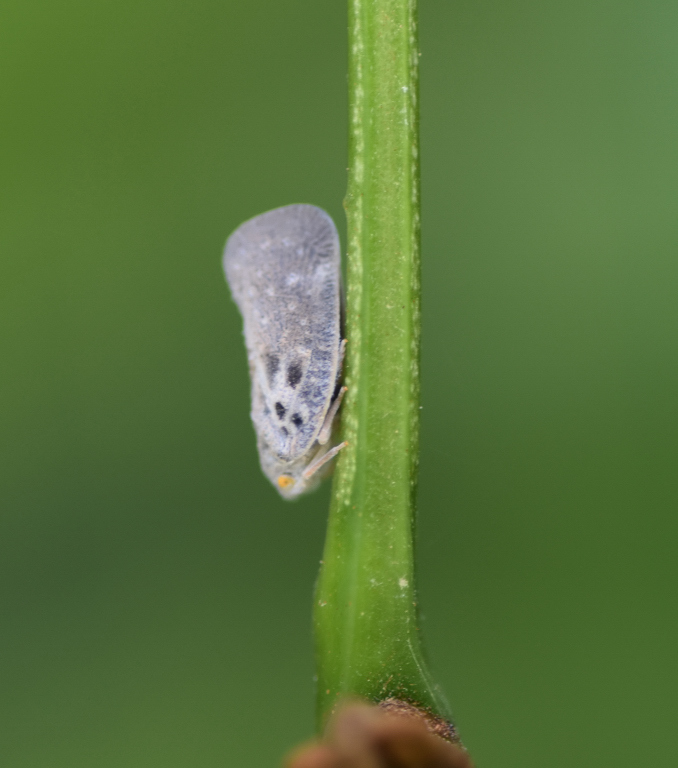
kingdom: Animalia
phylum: Arthropoda
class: Insecta
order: Hemiptera
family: Flatidae
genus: Metcalfa
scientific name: Metcalfa pruinosa
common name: Citrus flatid planthopper
